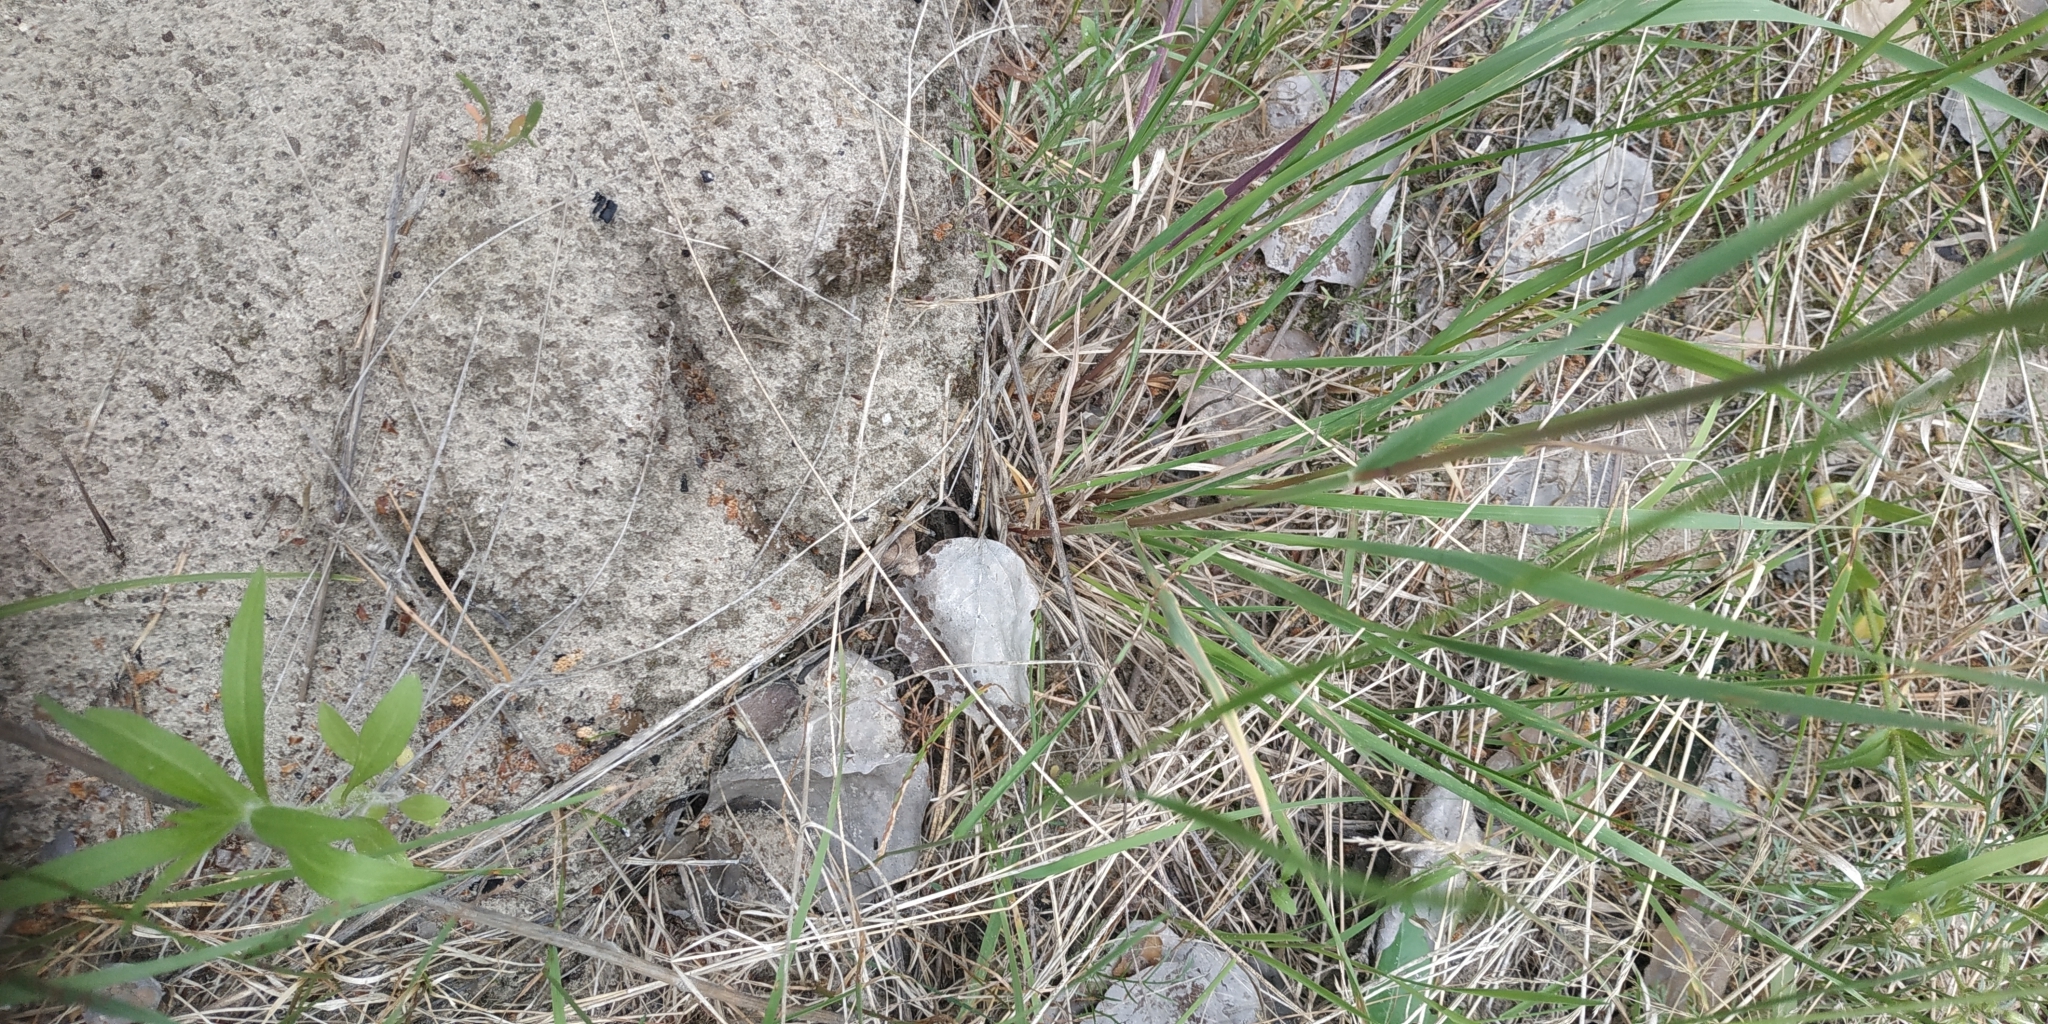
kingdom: Plantae
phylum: Tracheophyta
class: Liliopsida
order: Poales
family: Poaceae
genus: Phleum
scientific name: Phleum phleoides
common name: Purple-stem cat's-tail
